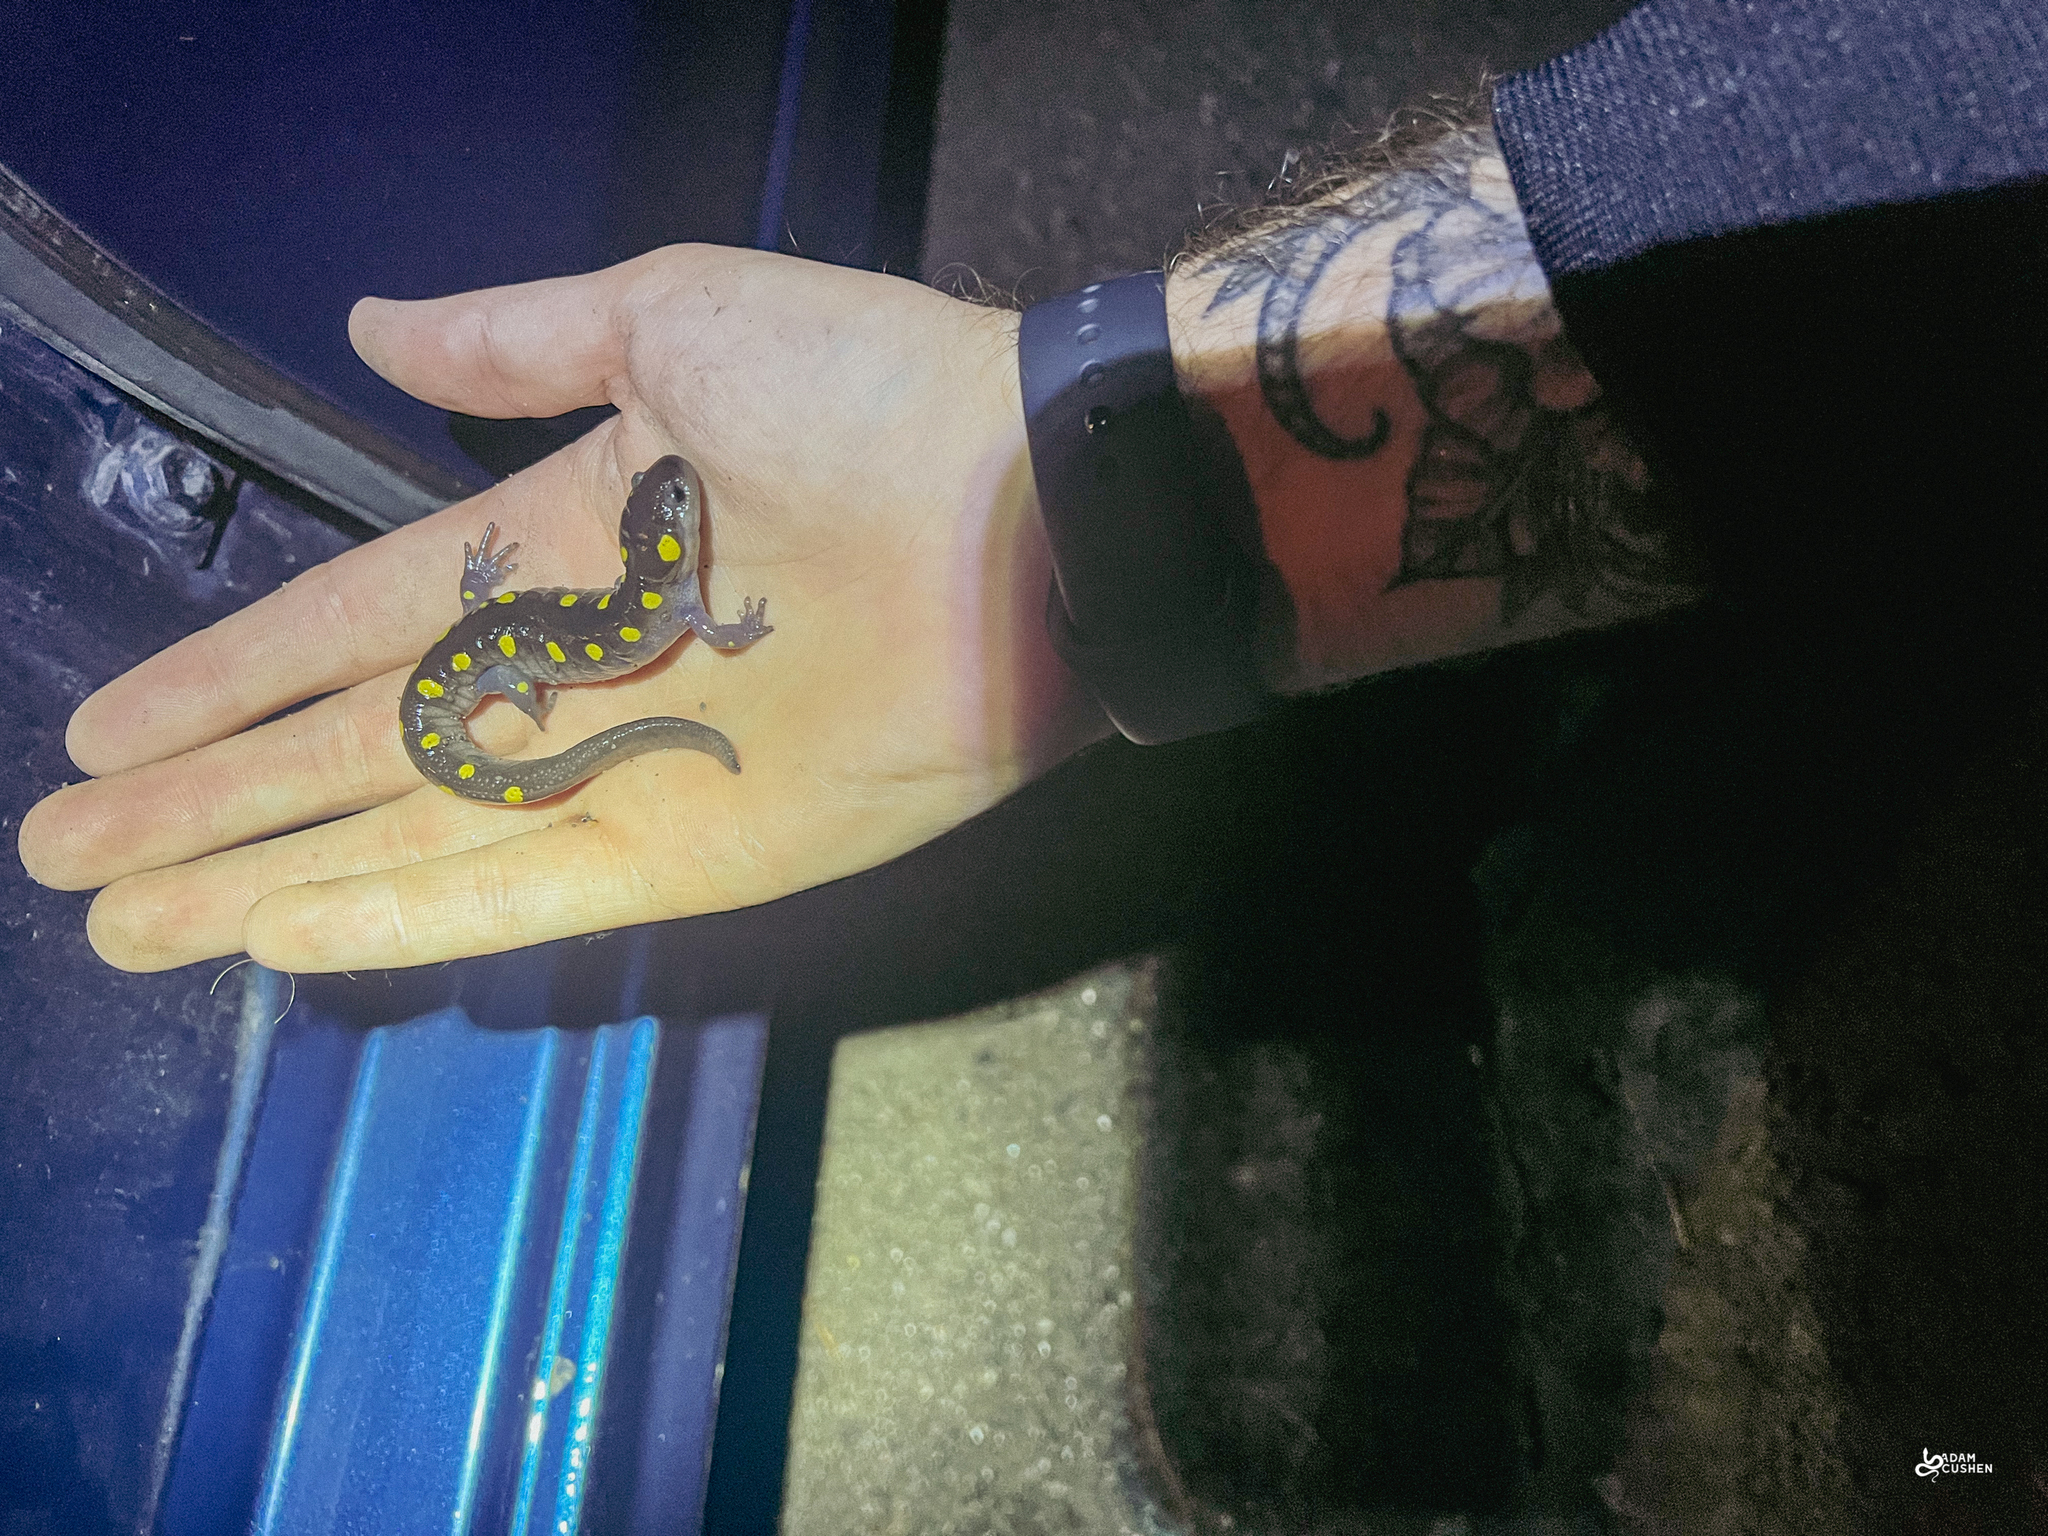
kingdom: Animalia
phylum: Chordata
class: Amphibia
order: Caudata
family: Ambystomatidae
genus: Ambystoma
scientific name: Ambystoma maculatum
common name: Spotted salamander
